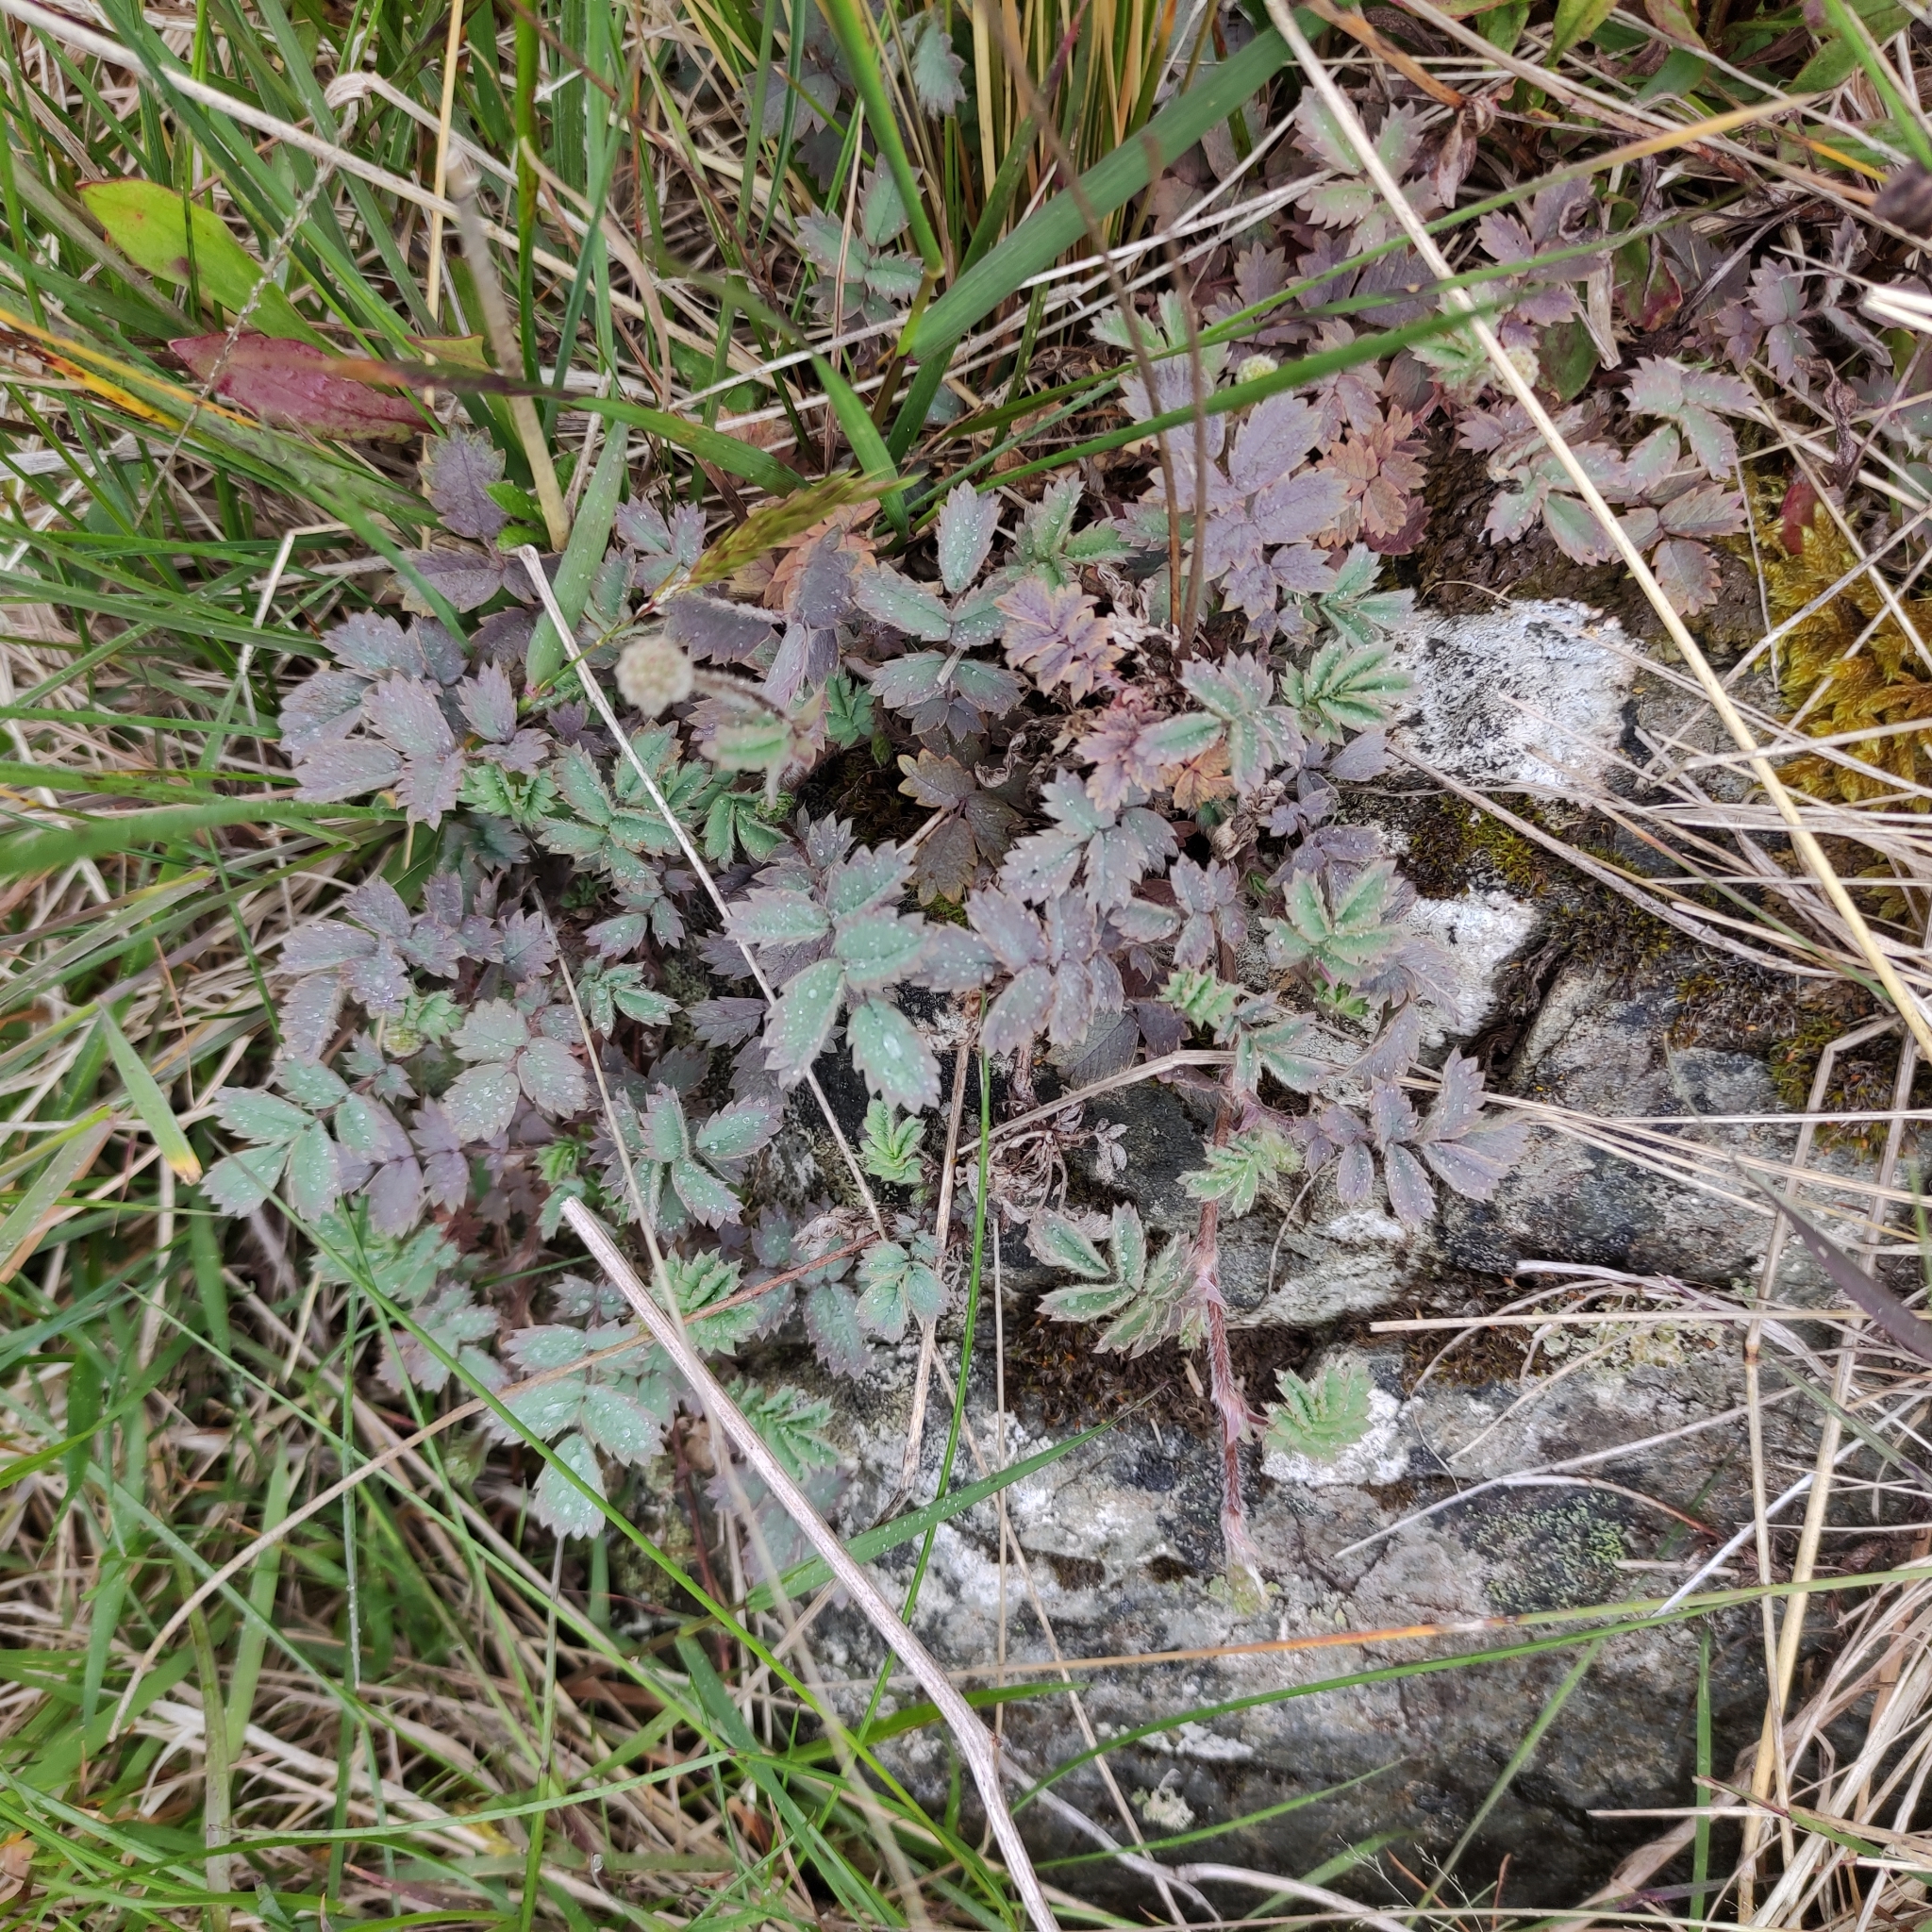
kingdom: Plantae
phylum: Tracheophyta
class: Magnoliopsida
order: Rosales
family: Rosaceae
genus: Acaena
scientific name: Acaena caesiiglauca
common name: Glaucous pirri-pirri-bur
